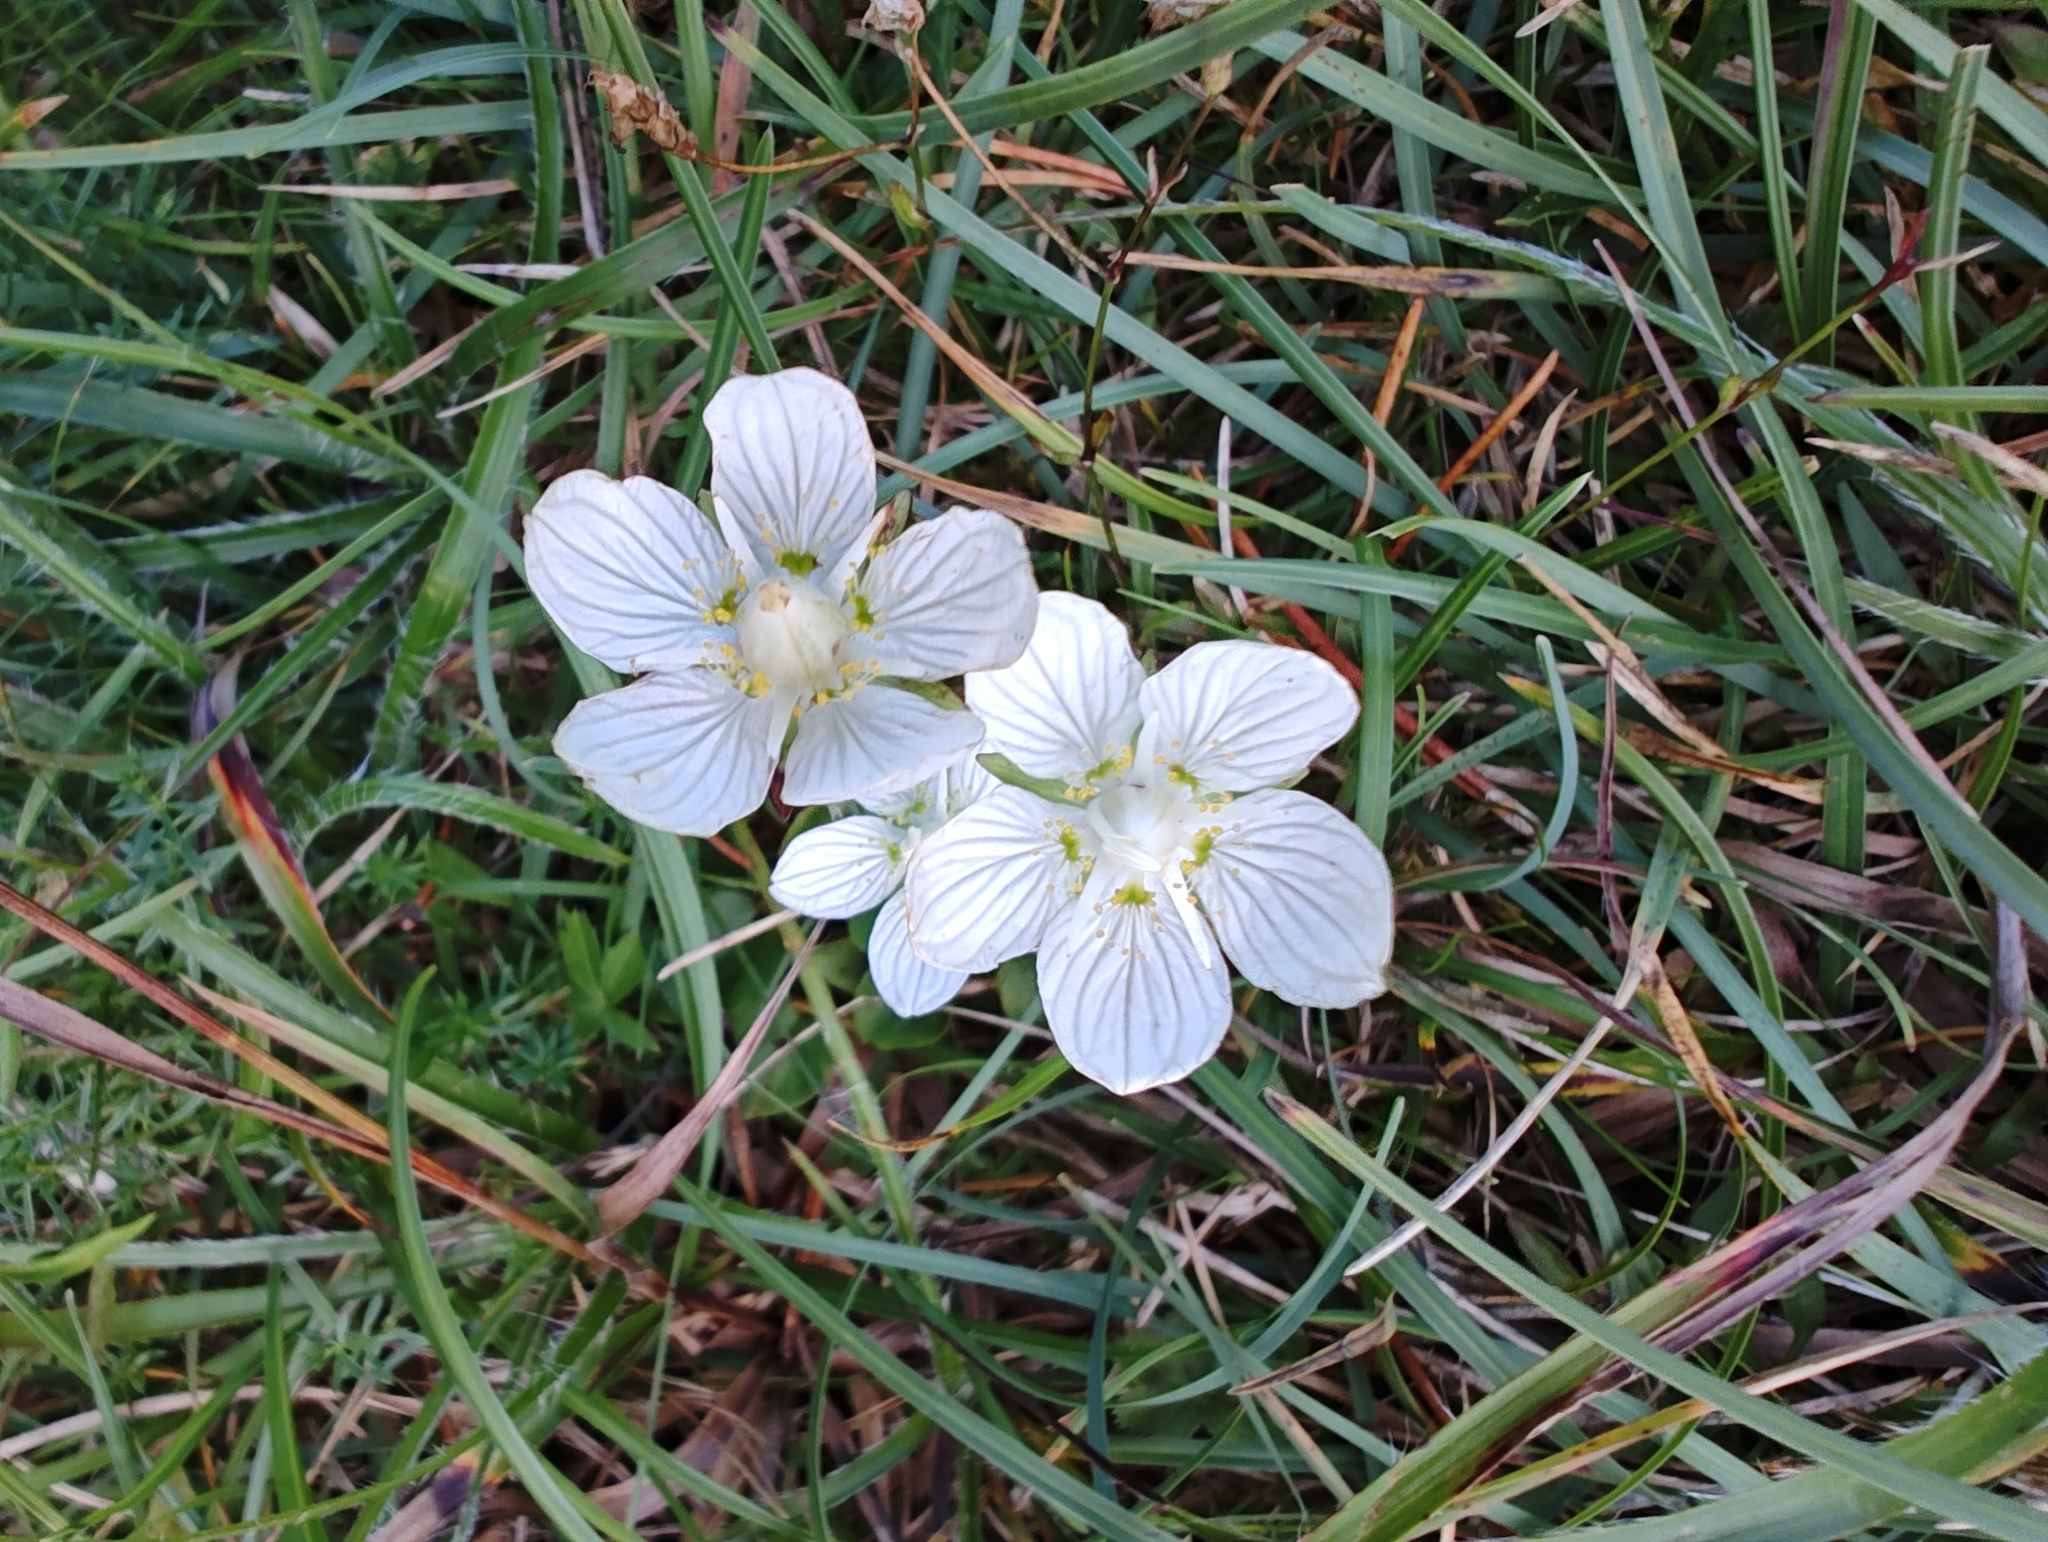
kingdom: Plantae
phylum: Tracheophyta
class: Magnoliopsida
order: Celastrales
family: Parnassiaceae
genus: Parnassia
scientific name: Parnassia palustris
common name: Grass-of-parnassus
